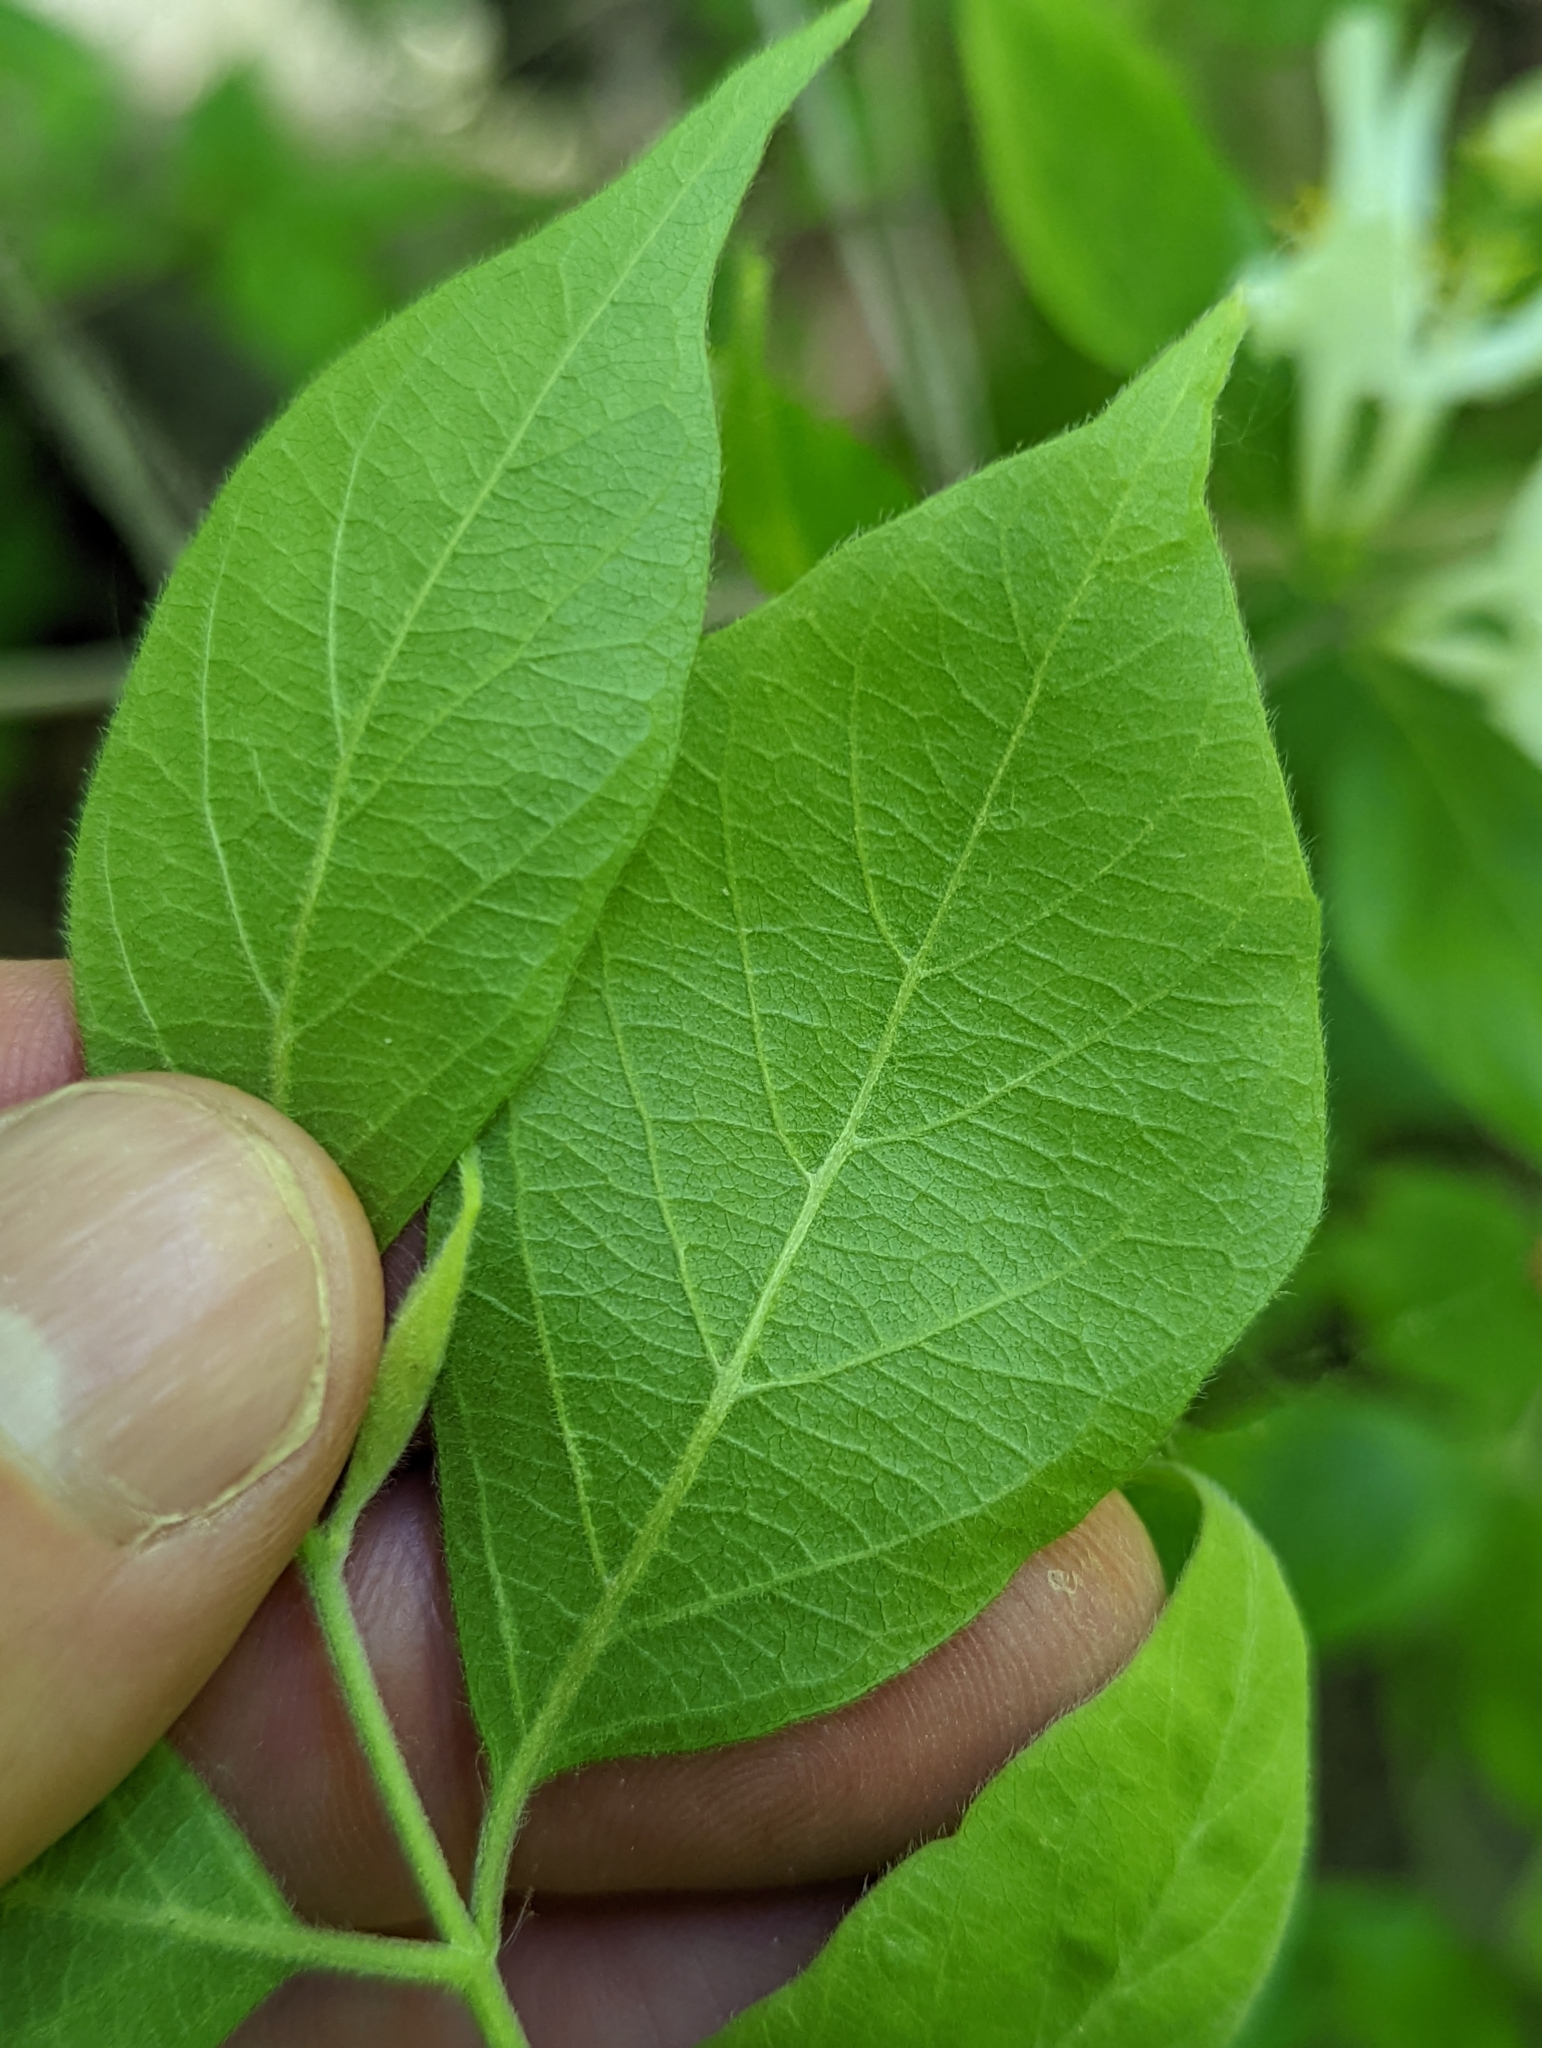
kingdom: Plantae
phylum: Tracheophyta
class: Magnoliopsida
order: Dipsacales
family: Caprifoliaceae
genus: Lonicera
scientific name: Lonicera maackii
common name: Amur honeysuckle
